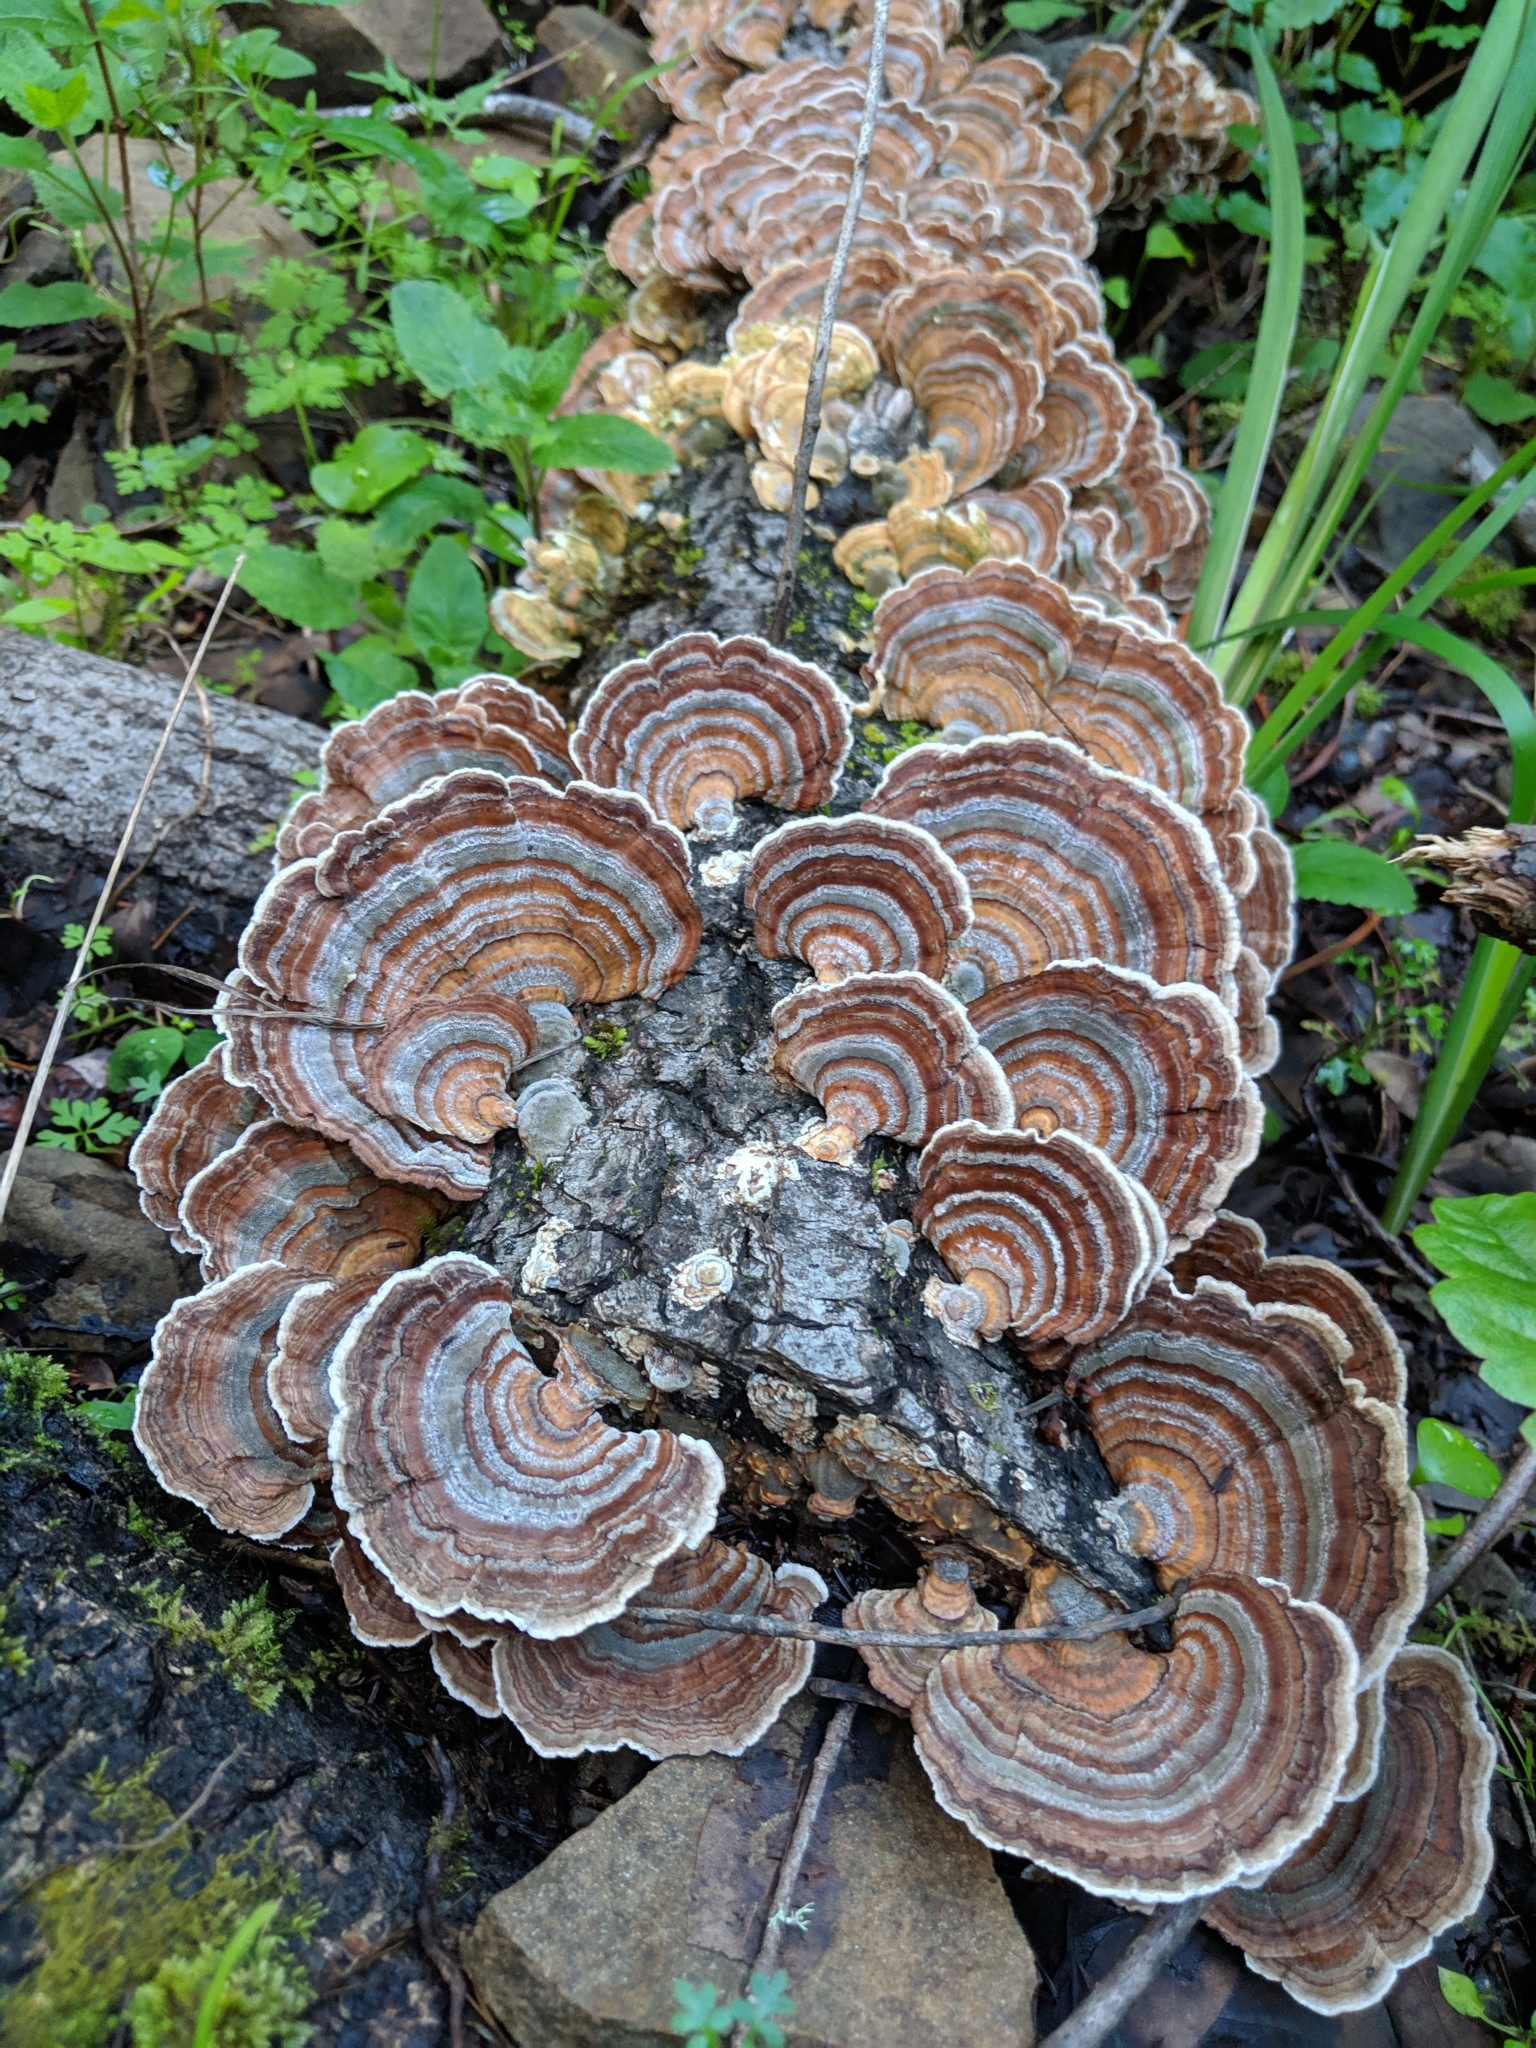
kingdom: Fungi
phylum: Basidiomycota
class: Agaricomycetes
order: Polyporales
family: Polyporaceae
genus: Trametes
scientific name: Trametes versicolor
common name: Turkeytail
